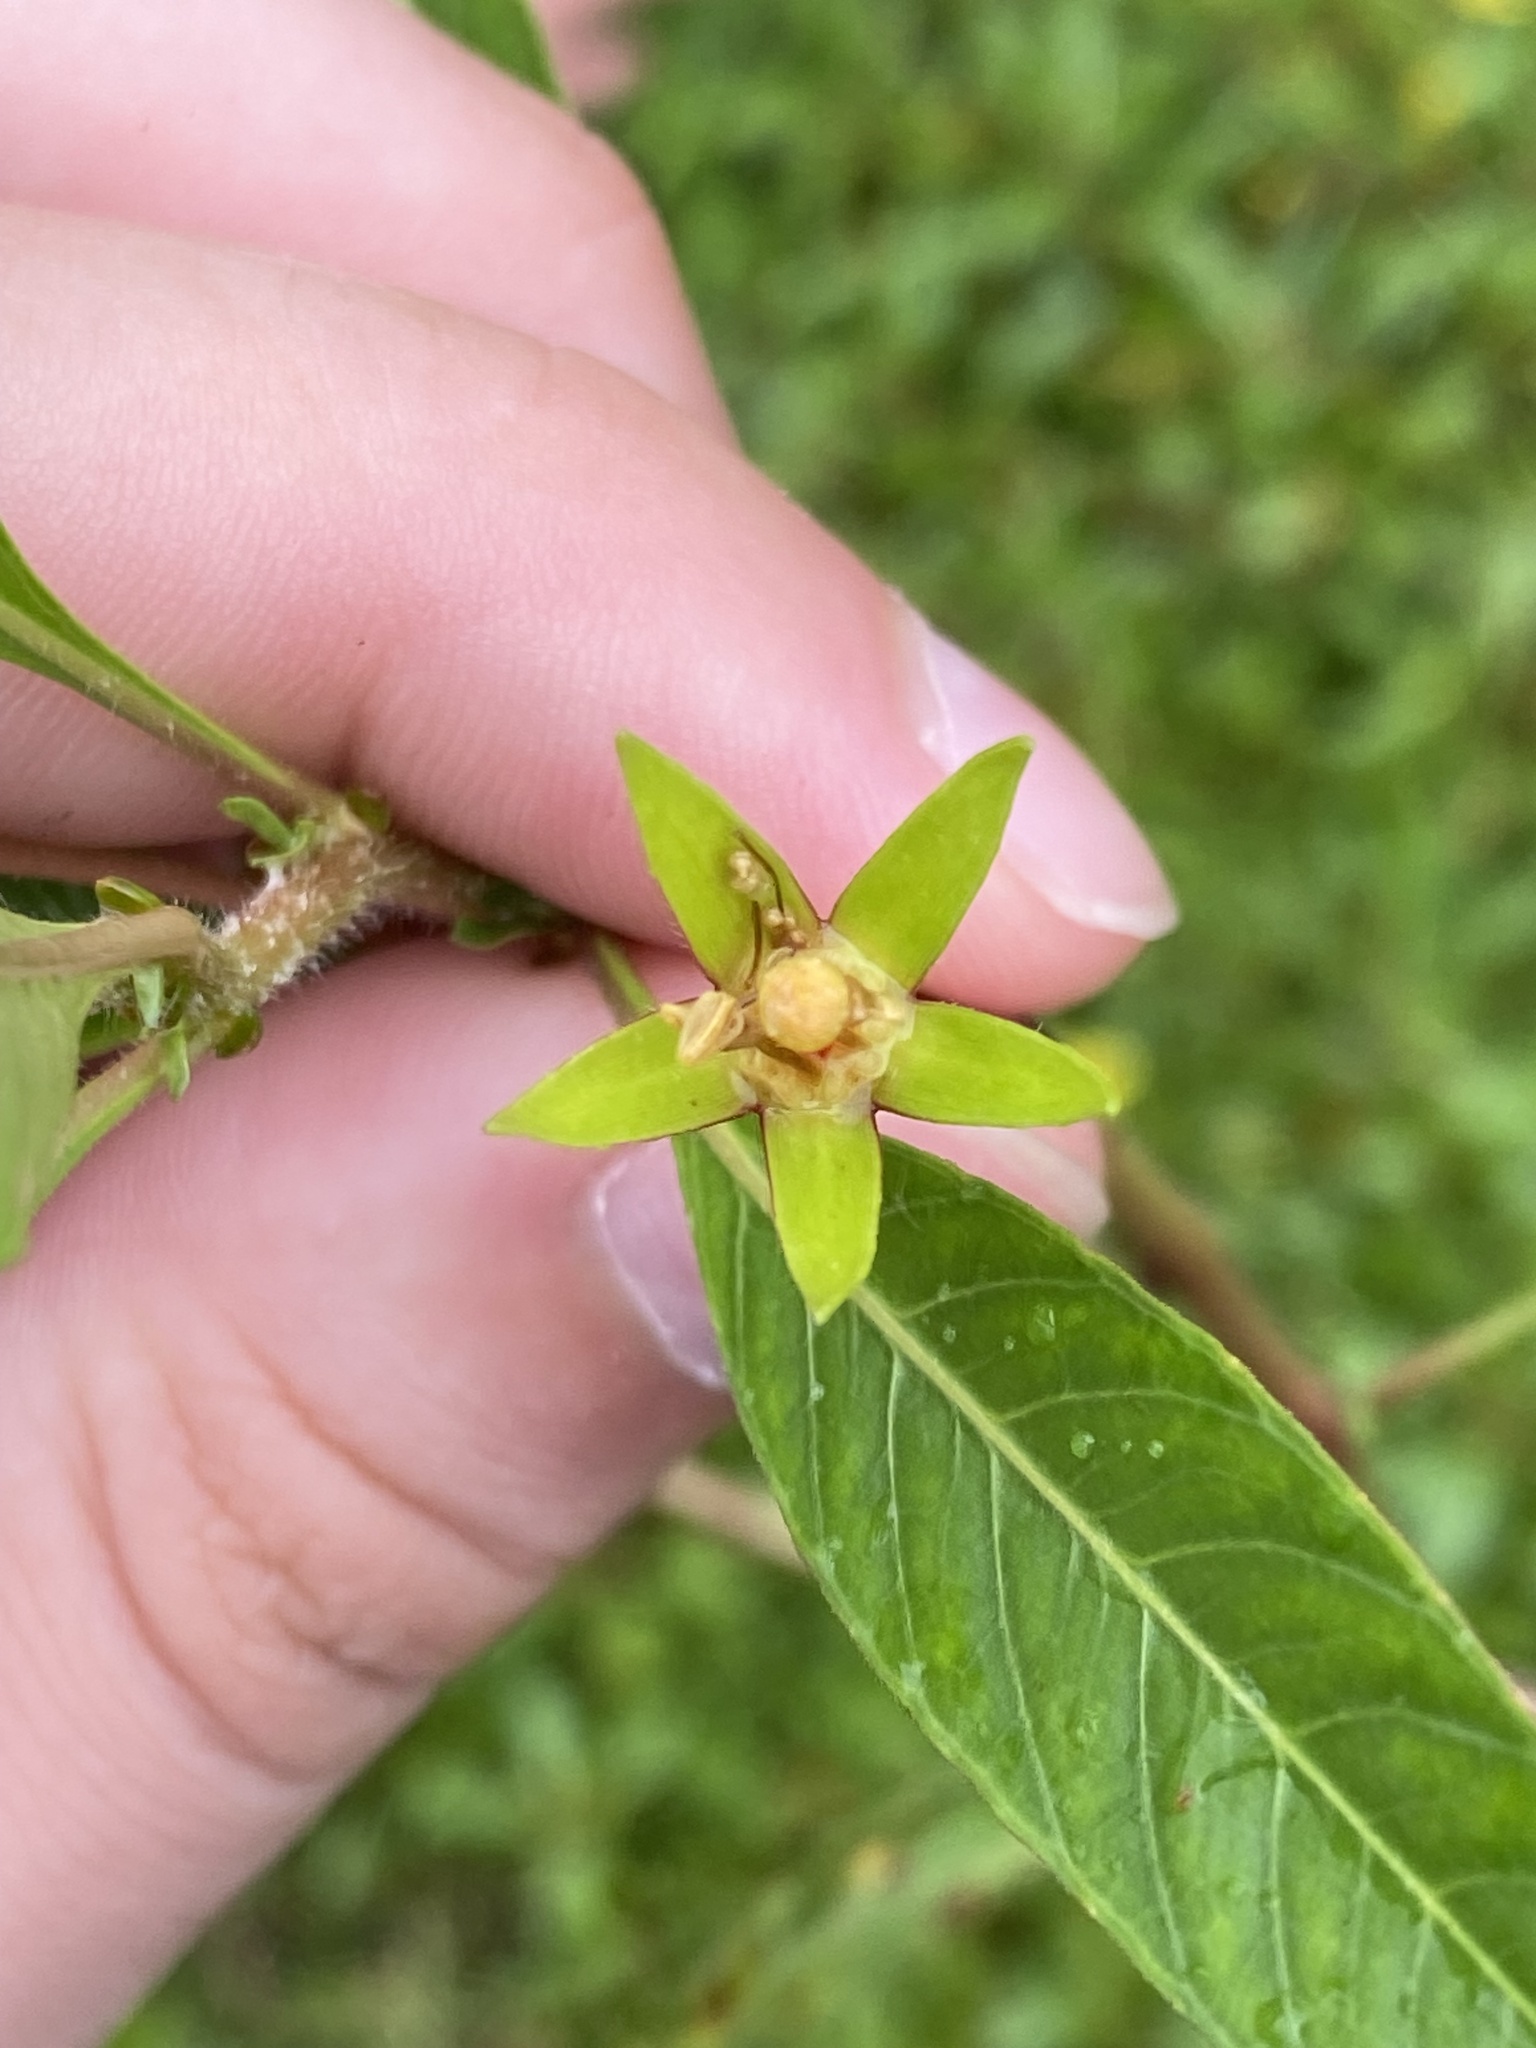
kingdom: Plantae
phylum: Tracheophyta
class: Magnoliopsida
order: Myrtales
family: Onagraceae
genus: Ludwigia
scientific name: Ludwigia peploides
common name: Floating primrose-willow
